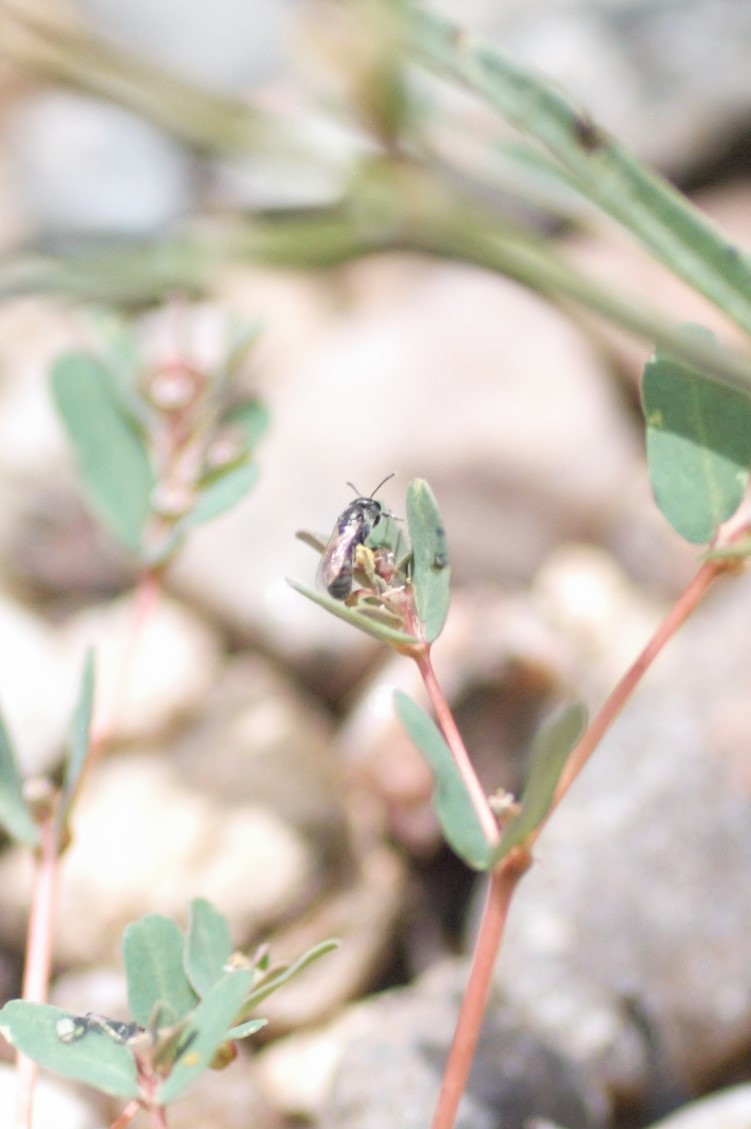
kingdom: Animalia
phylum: Arthropoda
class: Insecta
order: Hymenoptera
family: Halictidae
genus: Dialictus
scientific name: Dialictus
